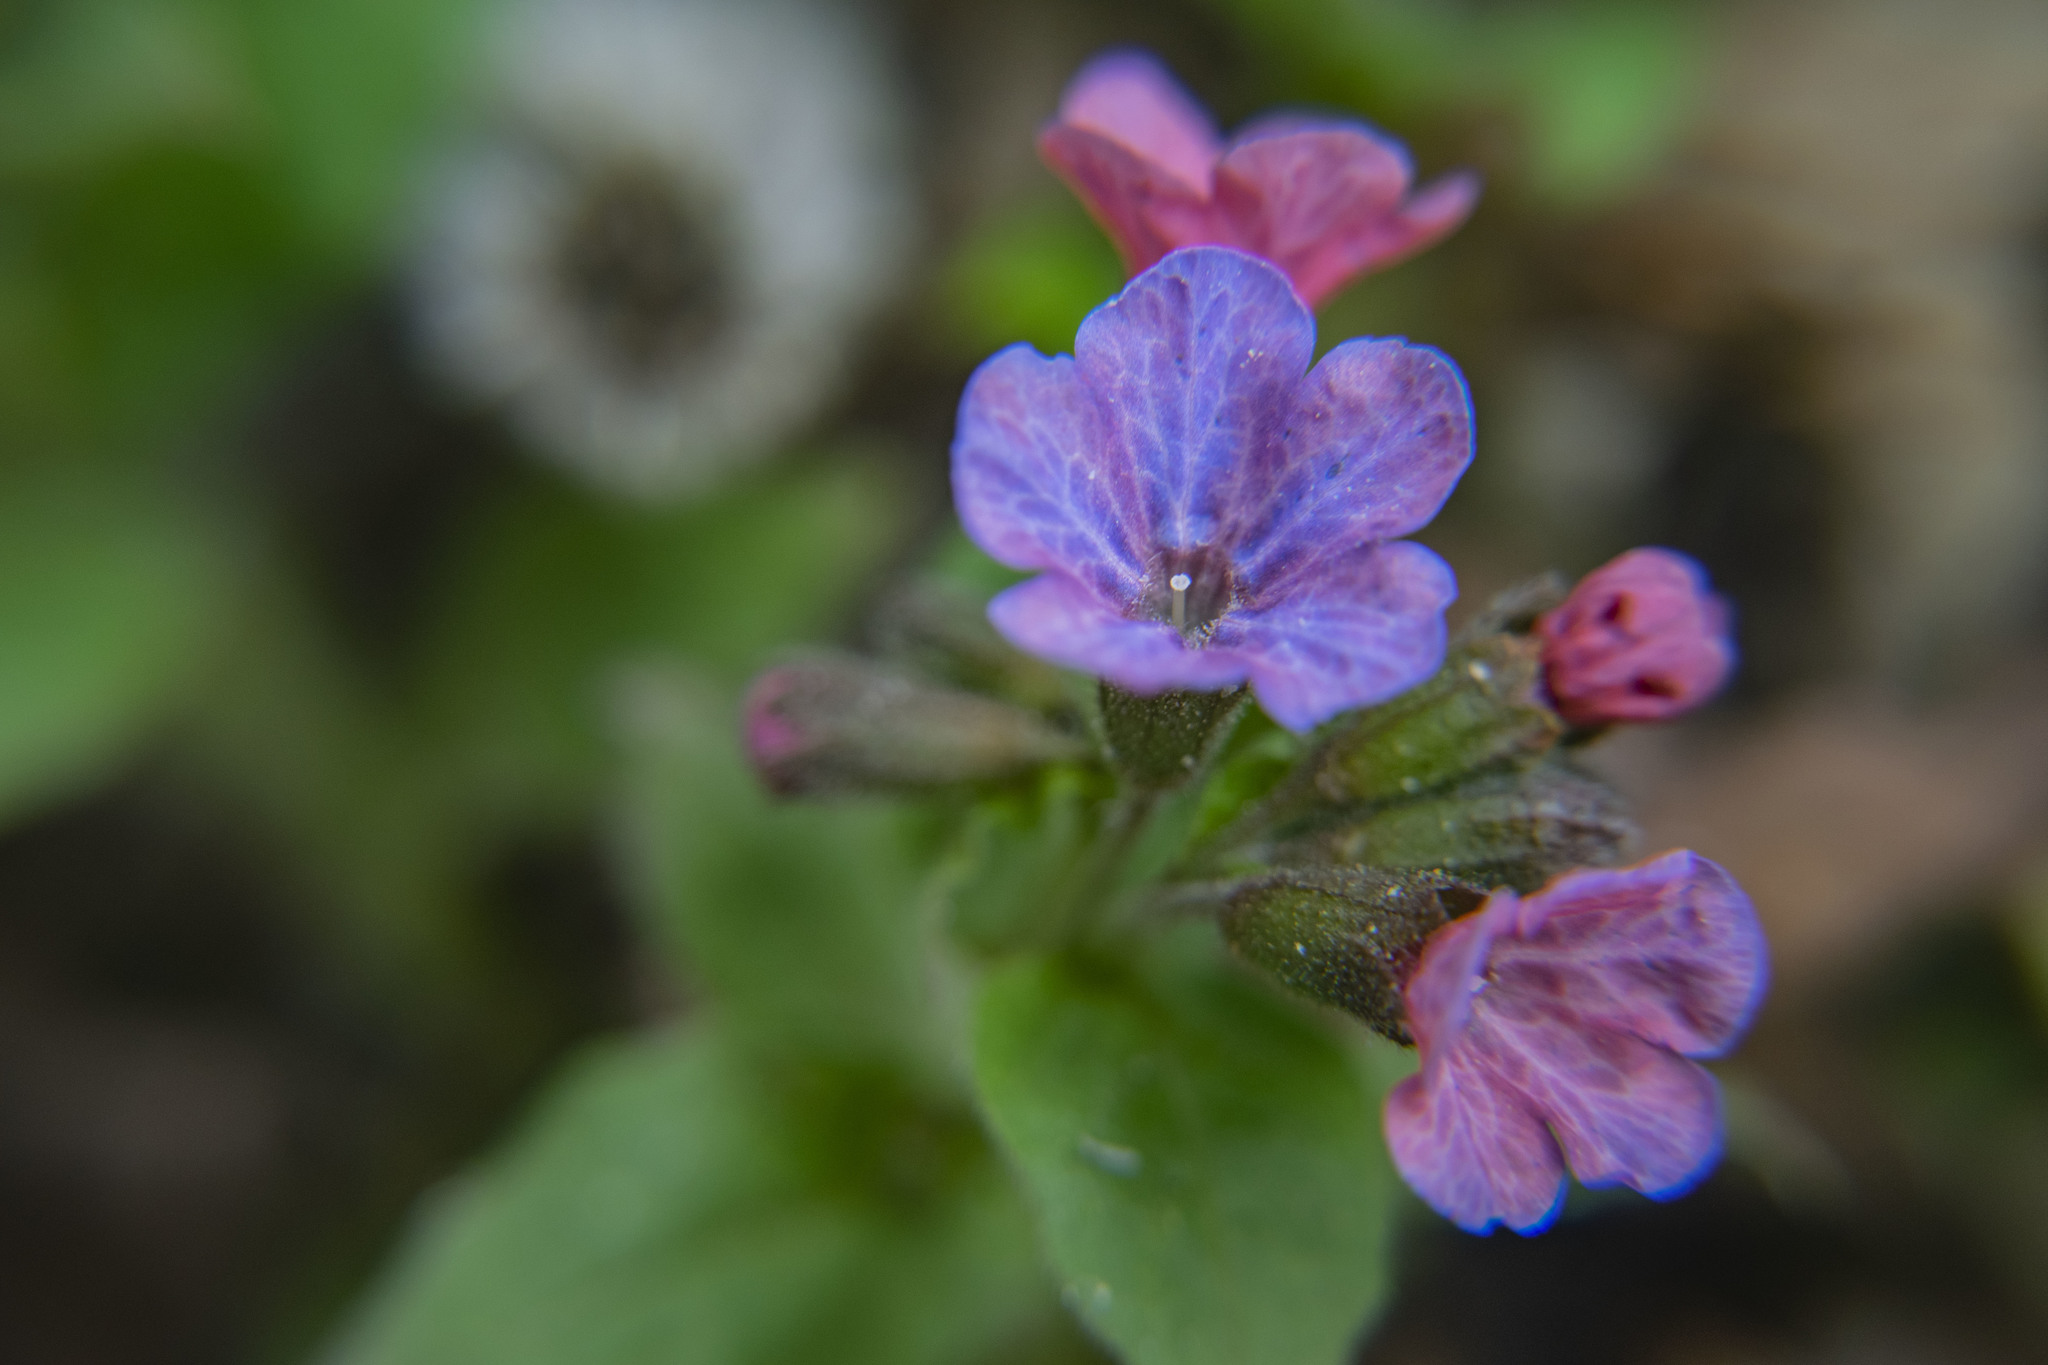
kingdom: Plantae
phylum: Tracheophyta
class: Magnoliopsida
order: Boraginales
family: Boraginaceae
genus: Pulmonaria
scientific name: Pulmonaria obscura
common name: Suffolk lungwort
